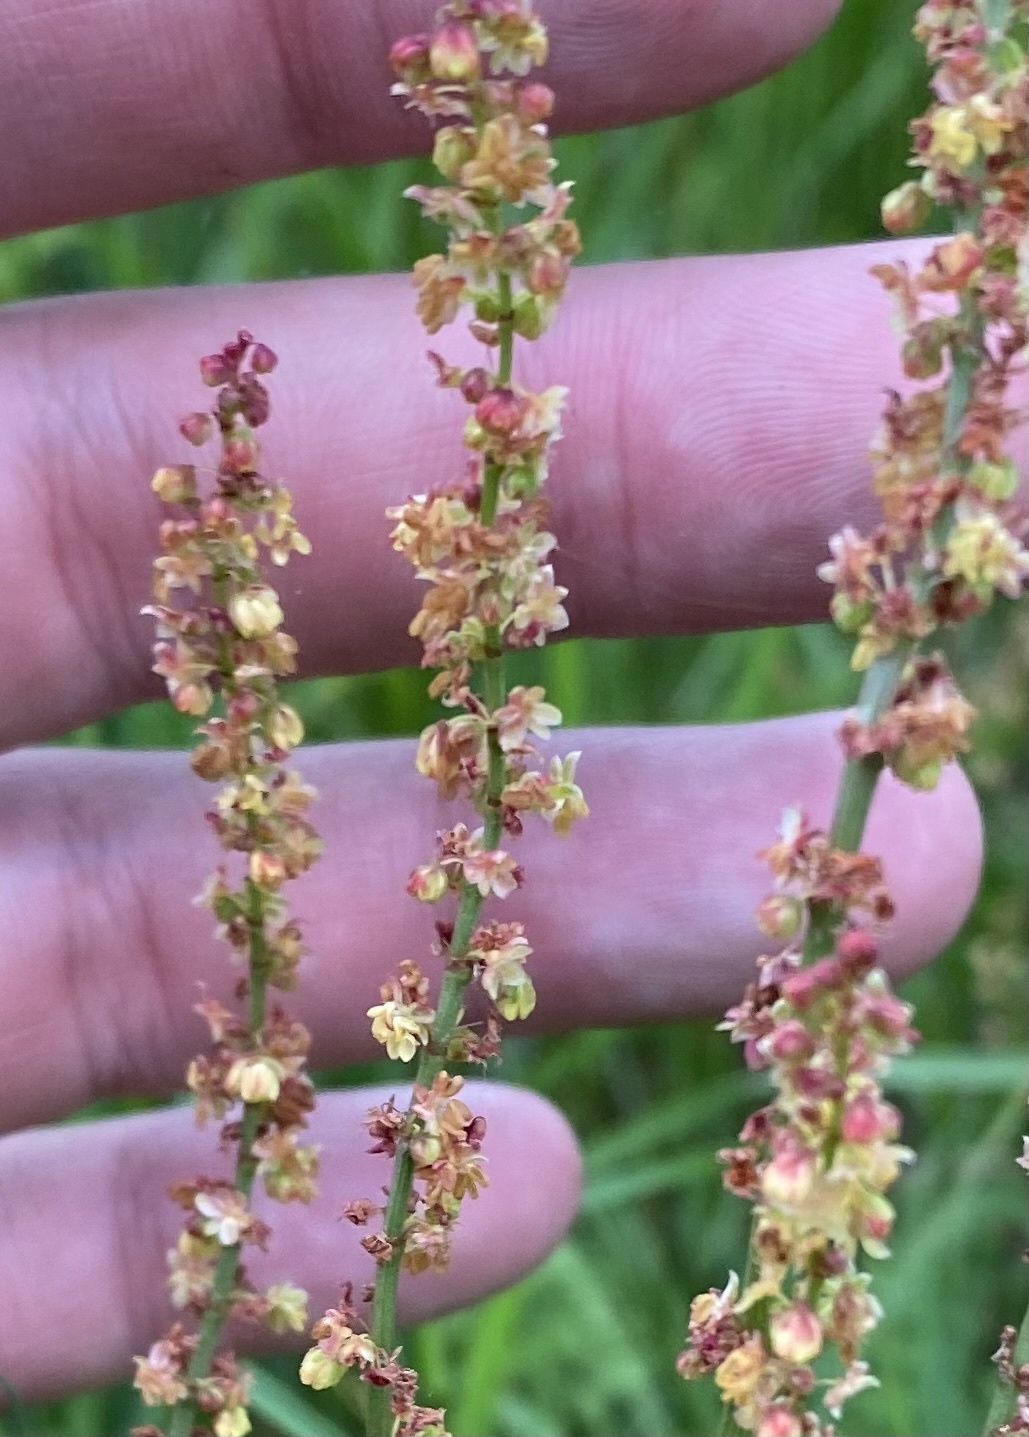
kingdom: Plantae
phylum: Tracheophyta
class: Magnoliopsida
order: Caryophyllales
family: Polygonaceae
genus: Rumex
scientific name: Rumex acetosella
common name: Common sheep sorrel
